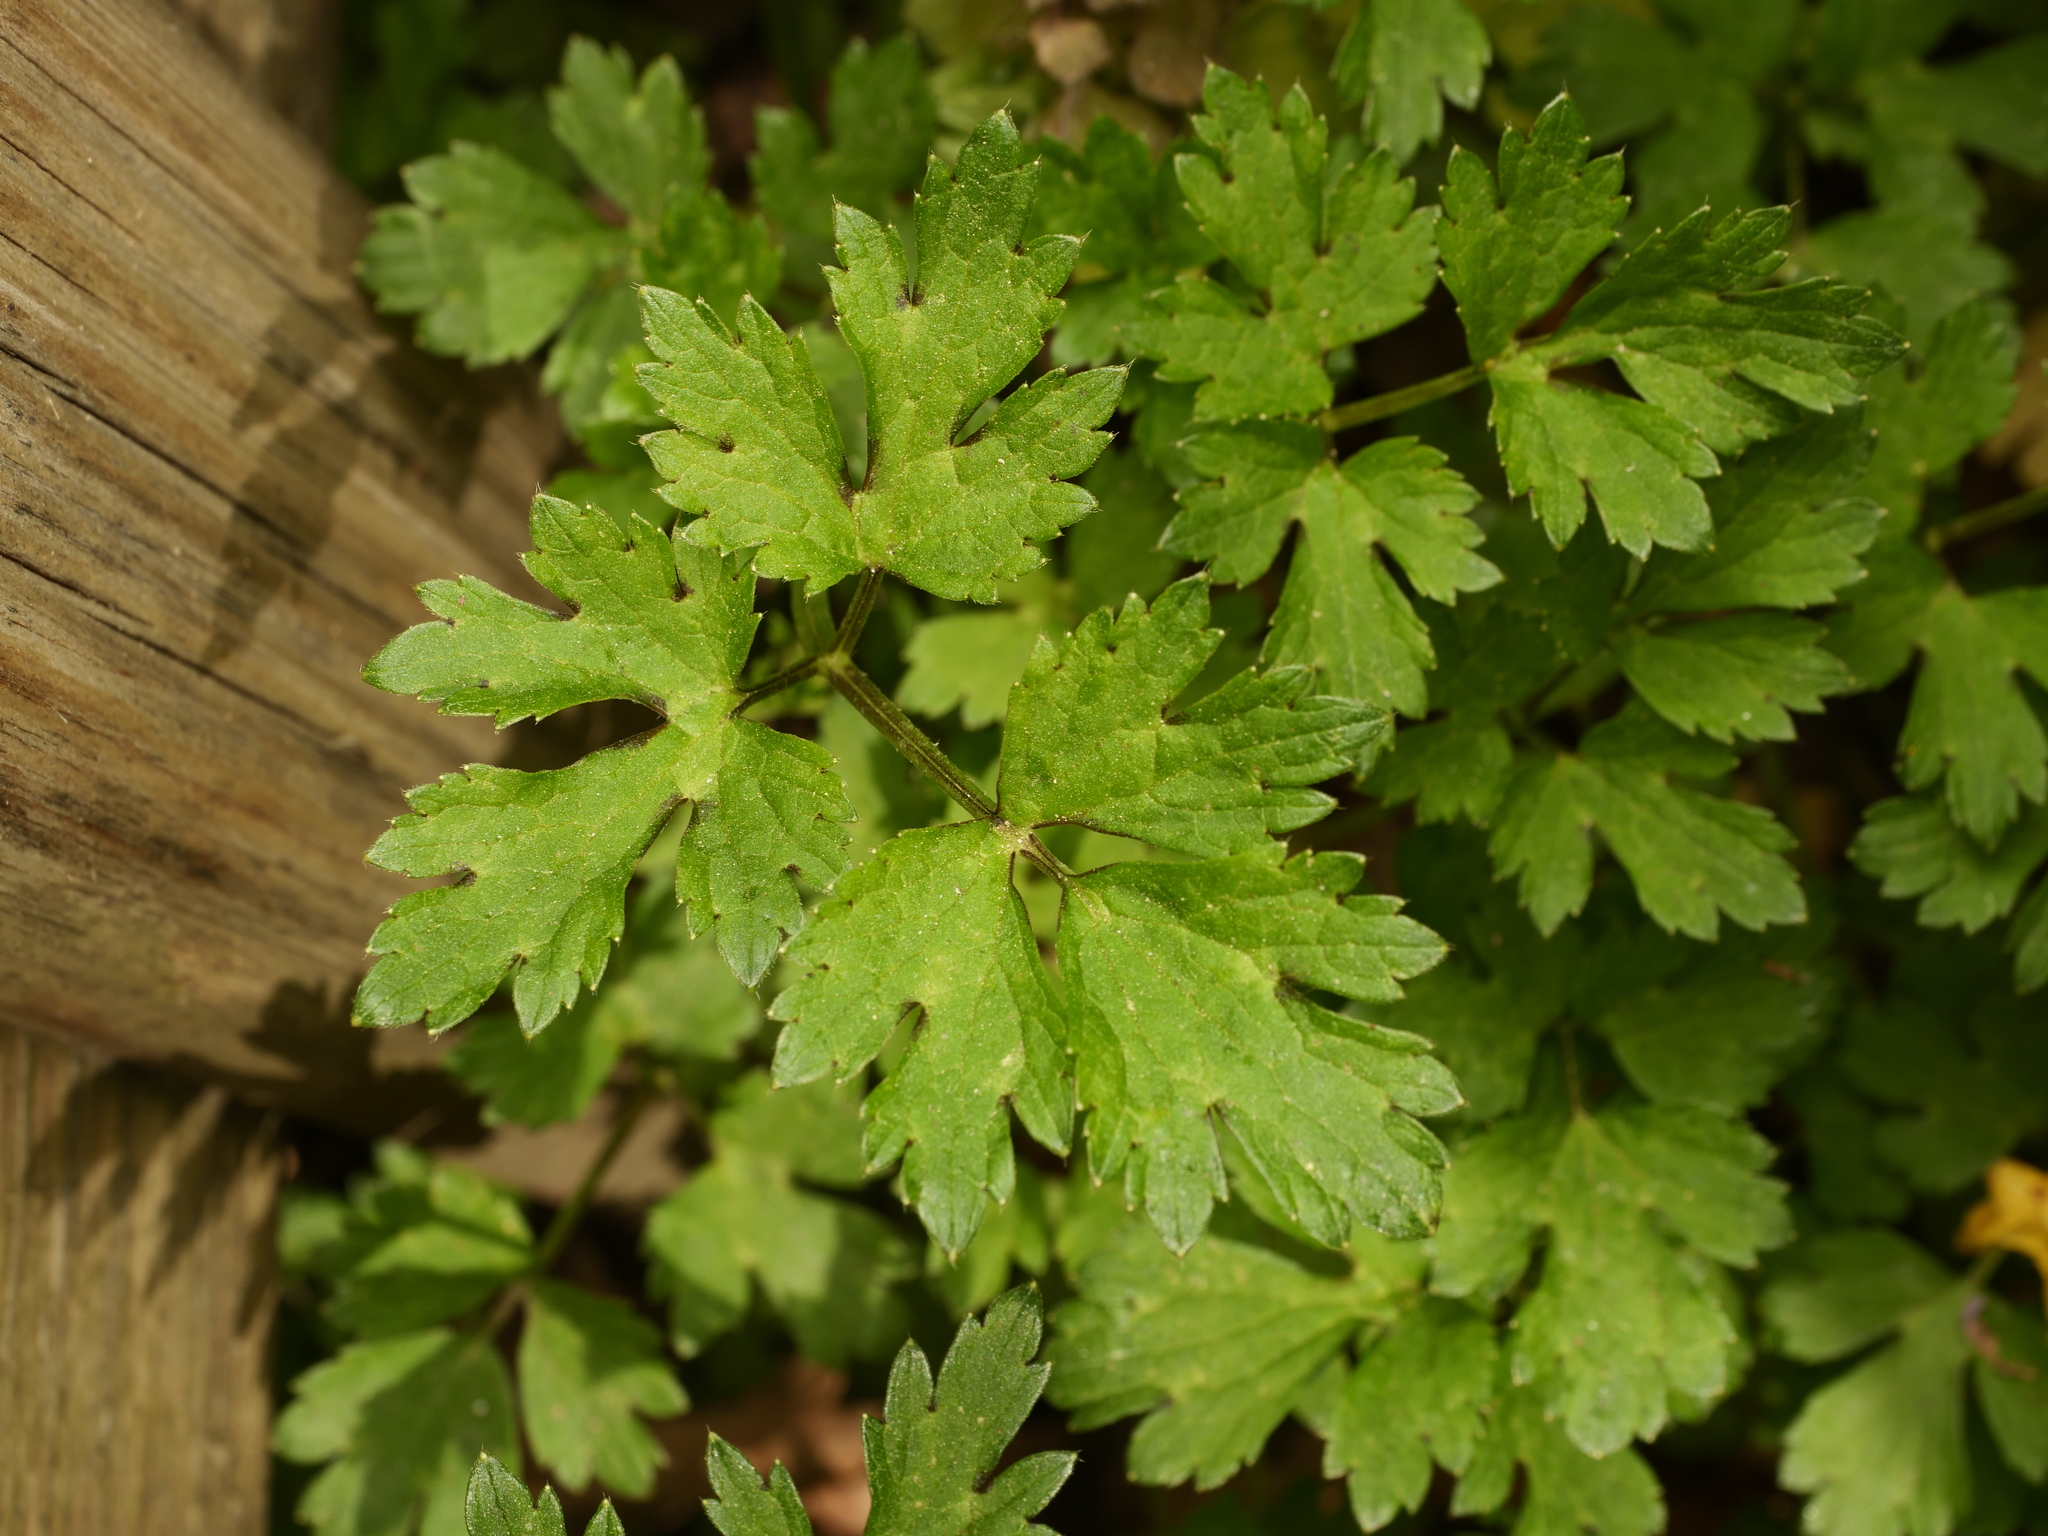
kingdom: Plantae
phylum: Tracheophyta
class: Magnoliopsida
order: Ranunculales
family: Ranunculaceae
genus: Ranunculus
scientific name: Ranunculus repens
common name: Creeping buttercup
